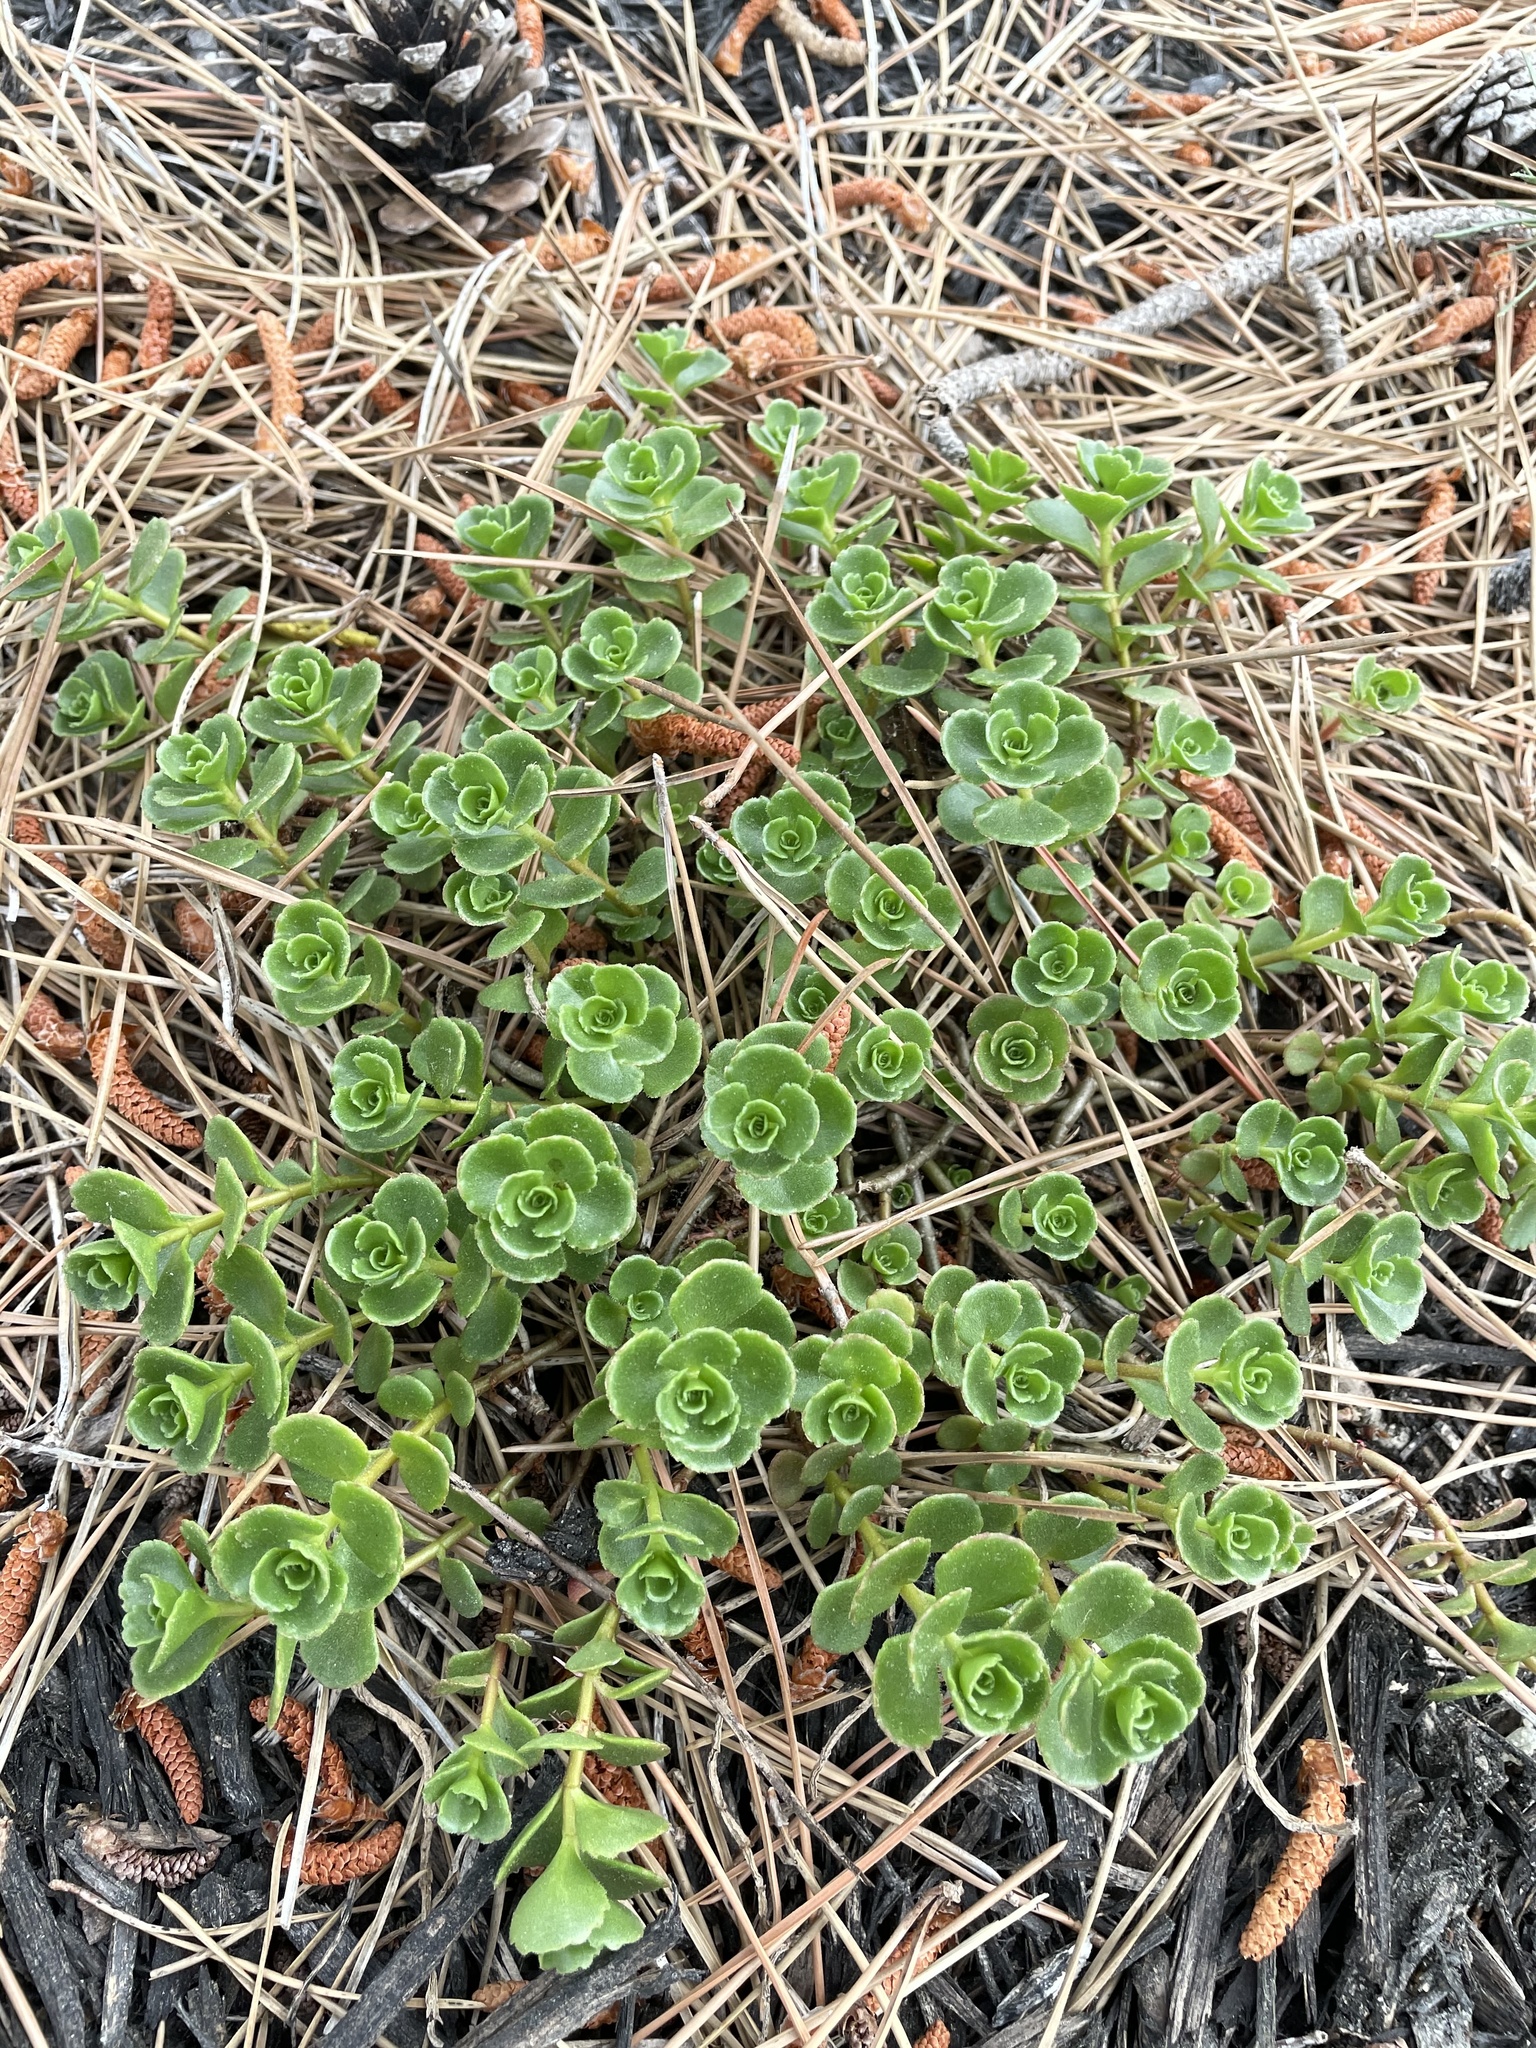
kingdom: Plantae
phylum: Tracheophyta
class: Magnoliopsida
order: Saxifragales
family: Crassulaceae
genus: Phedimus
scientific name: Phedimus spurius
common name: Caucasian stonecrop
